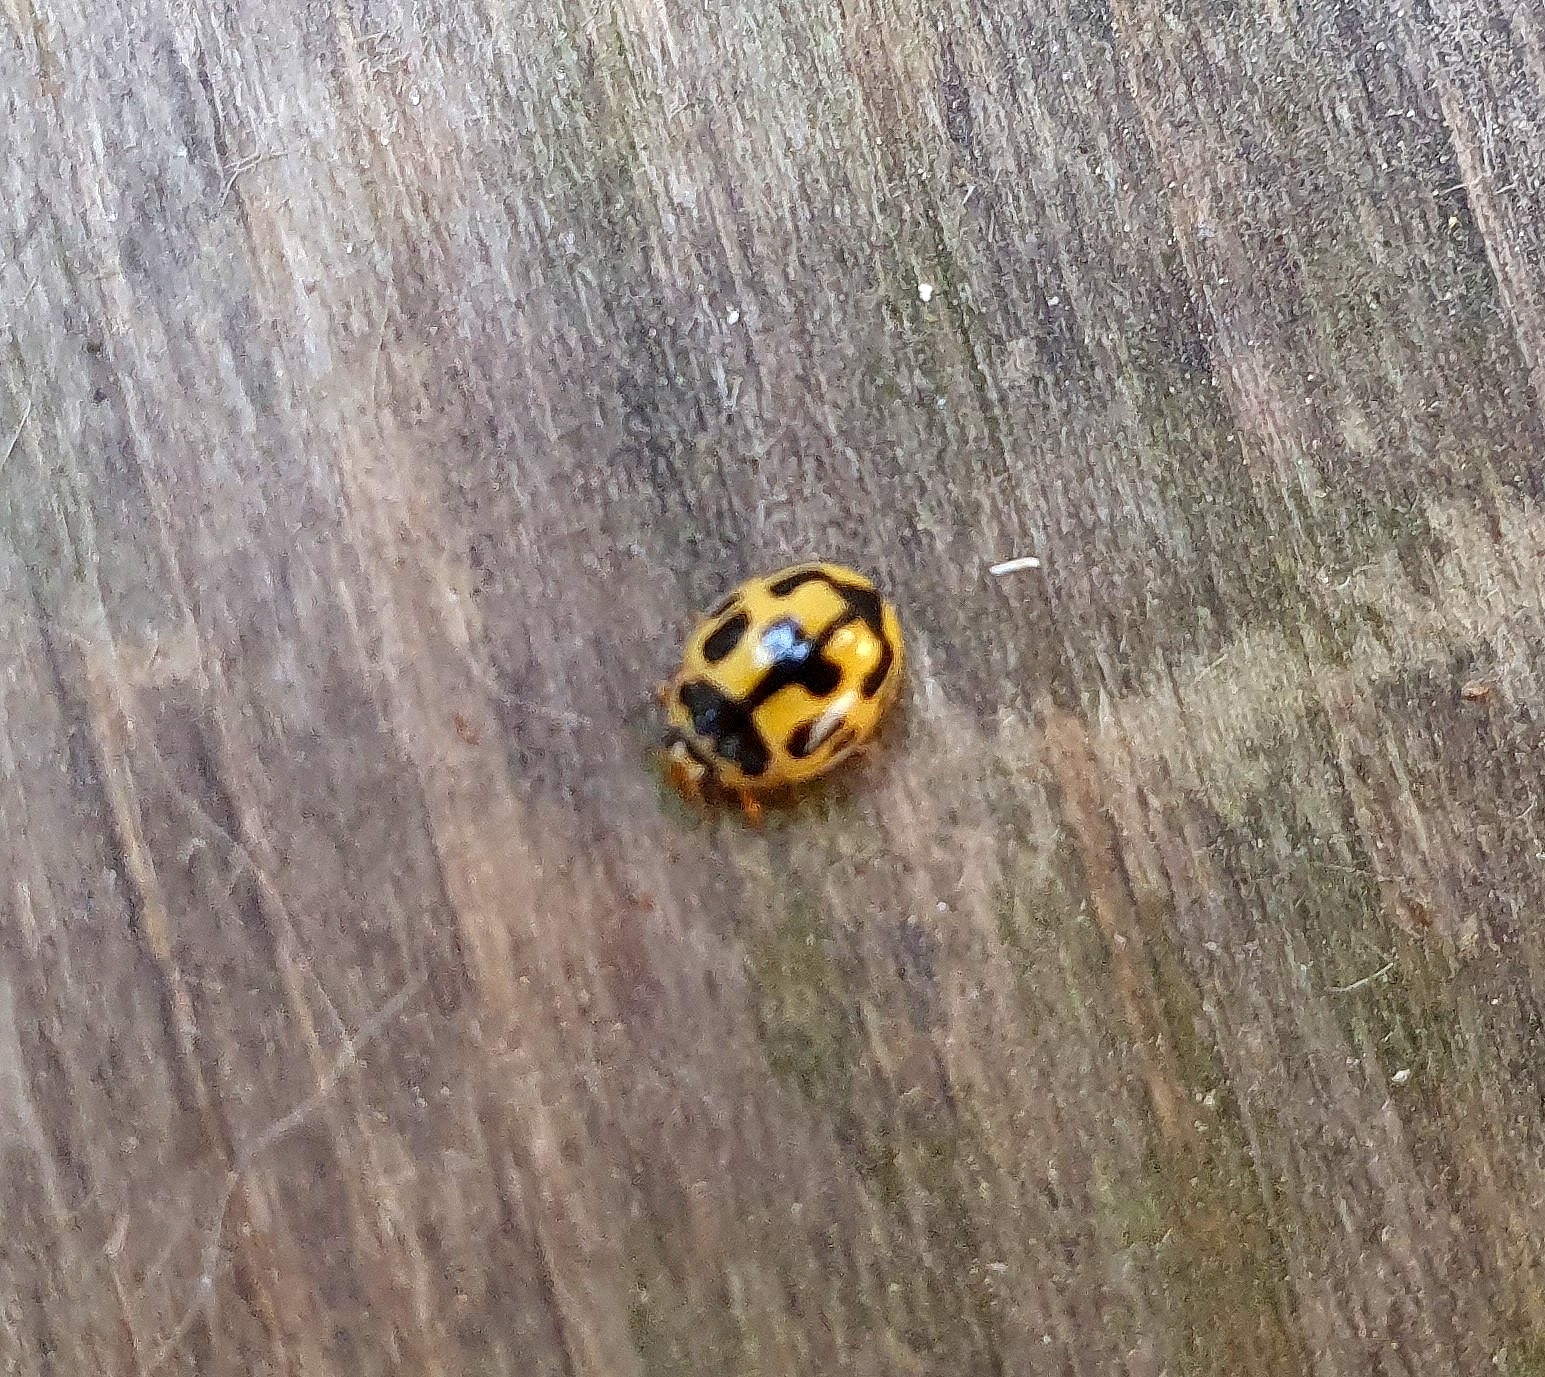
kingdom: Animalia
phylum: Arthropoda
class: Insecta
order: Coleoptera
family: Coccinellidae
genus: Propylaea
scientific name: Propylaea quatuordecimpunctata
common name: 14-spotted ladybird beetle
